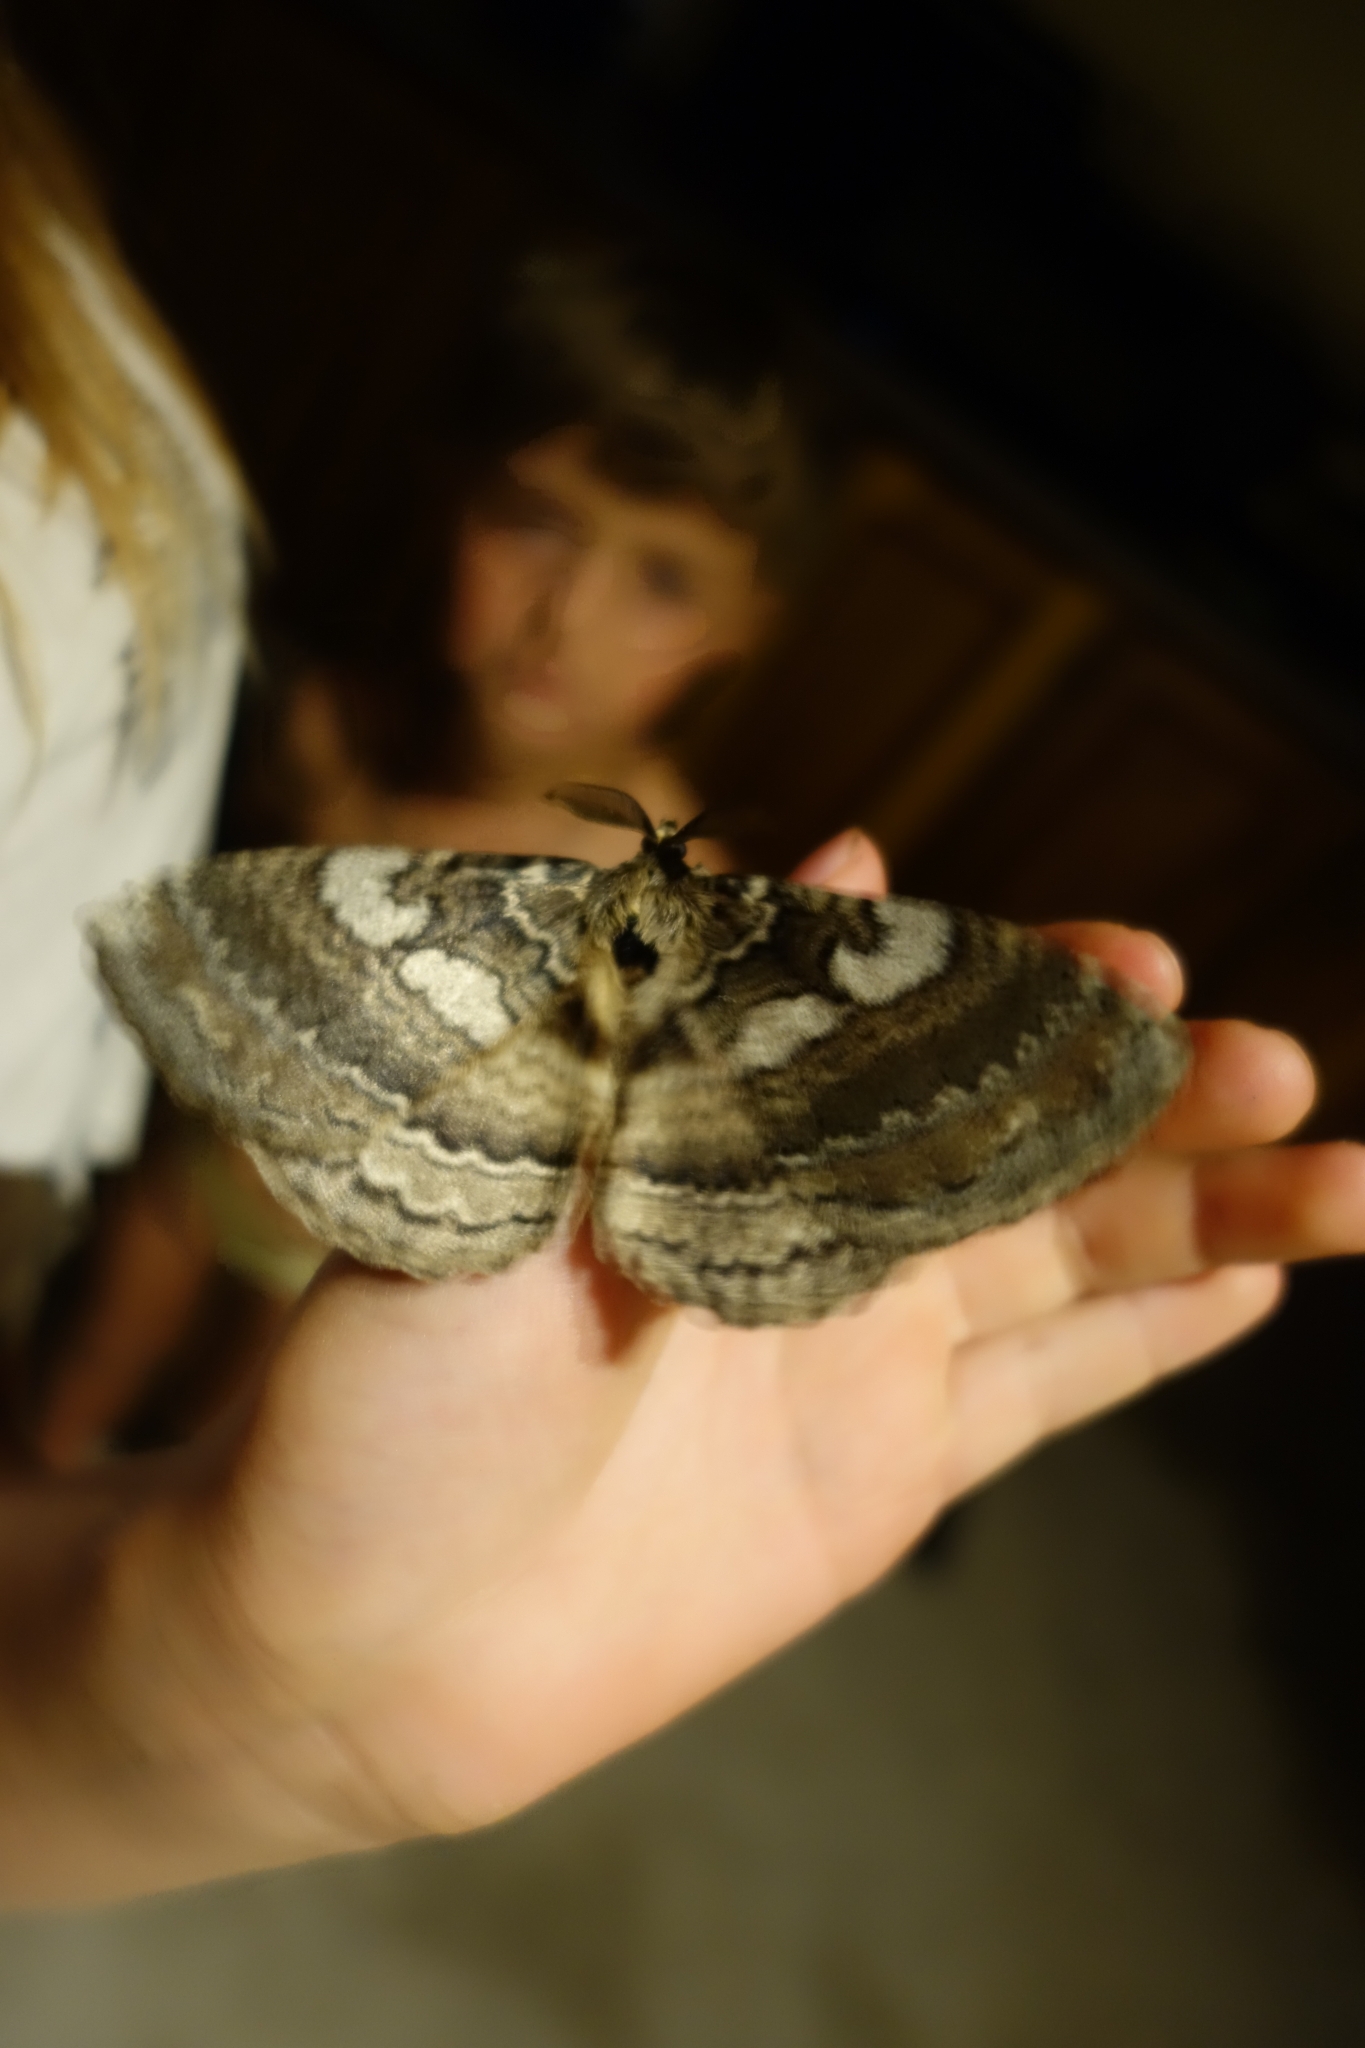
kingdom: Animalia
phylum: Arthropoda
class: Insecta
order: Lepidoptera
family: Eupterotidae
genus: Striphnopteryx
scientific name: Striphnopteryx edulis
